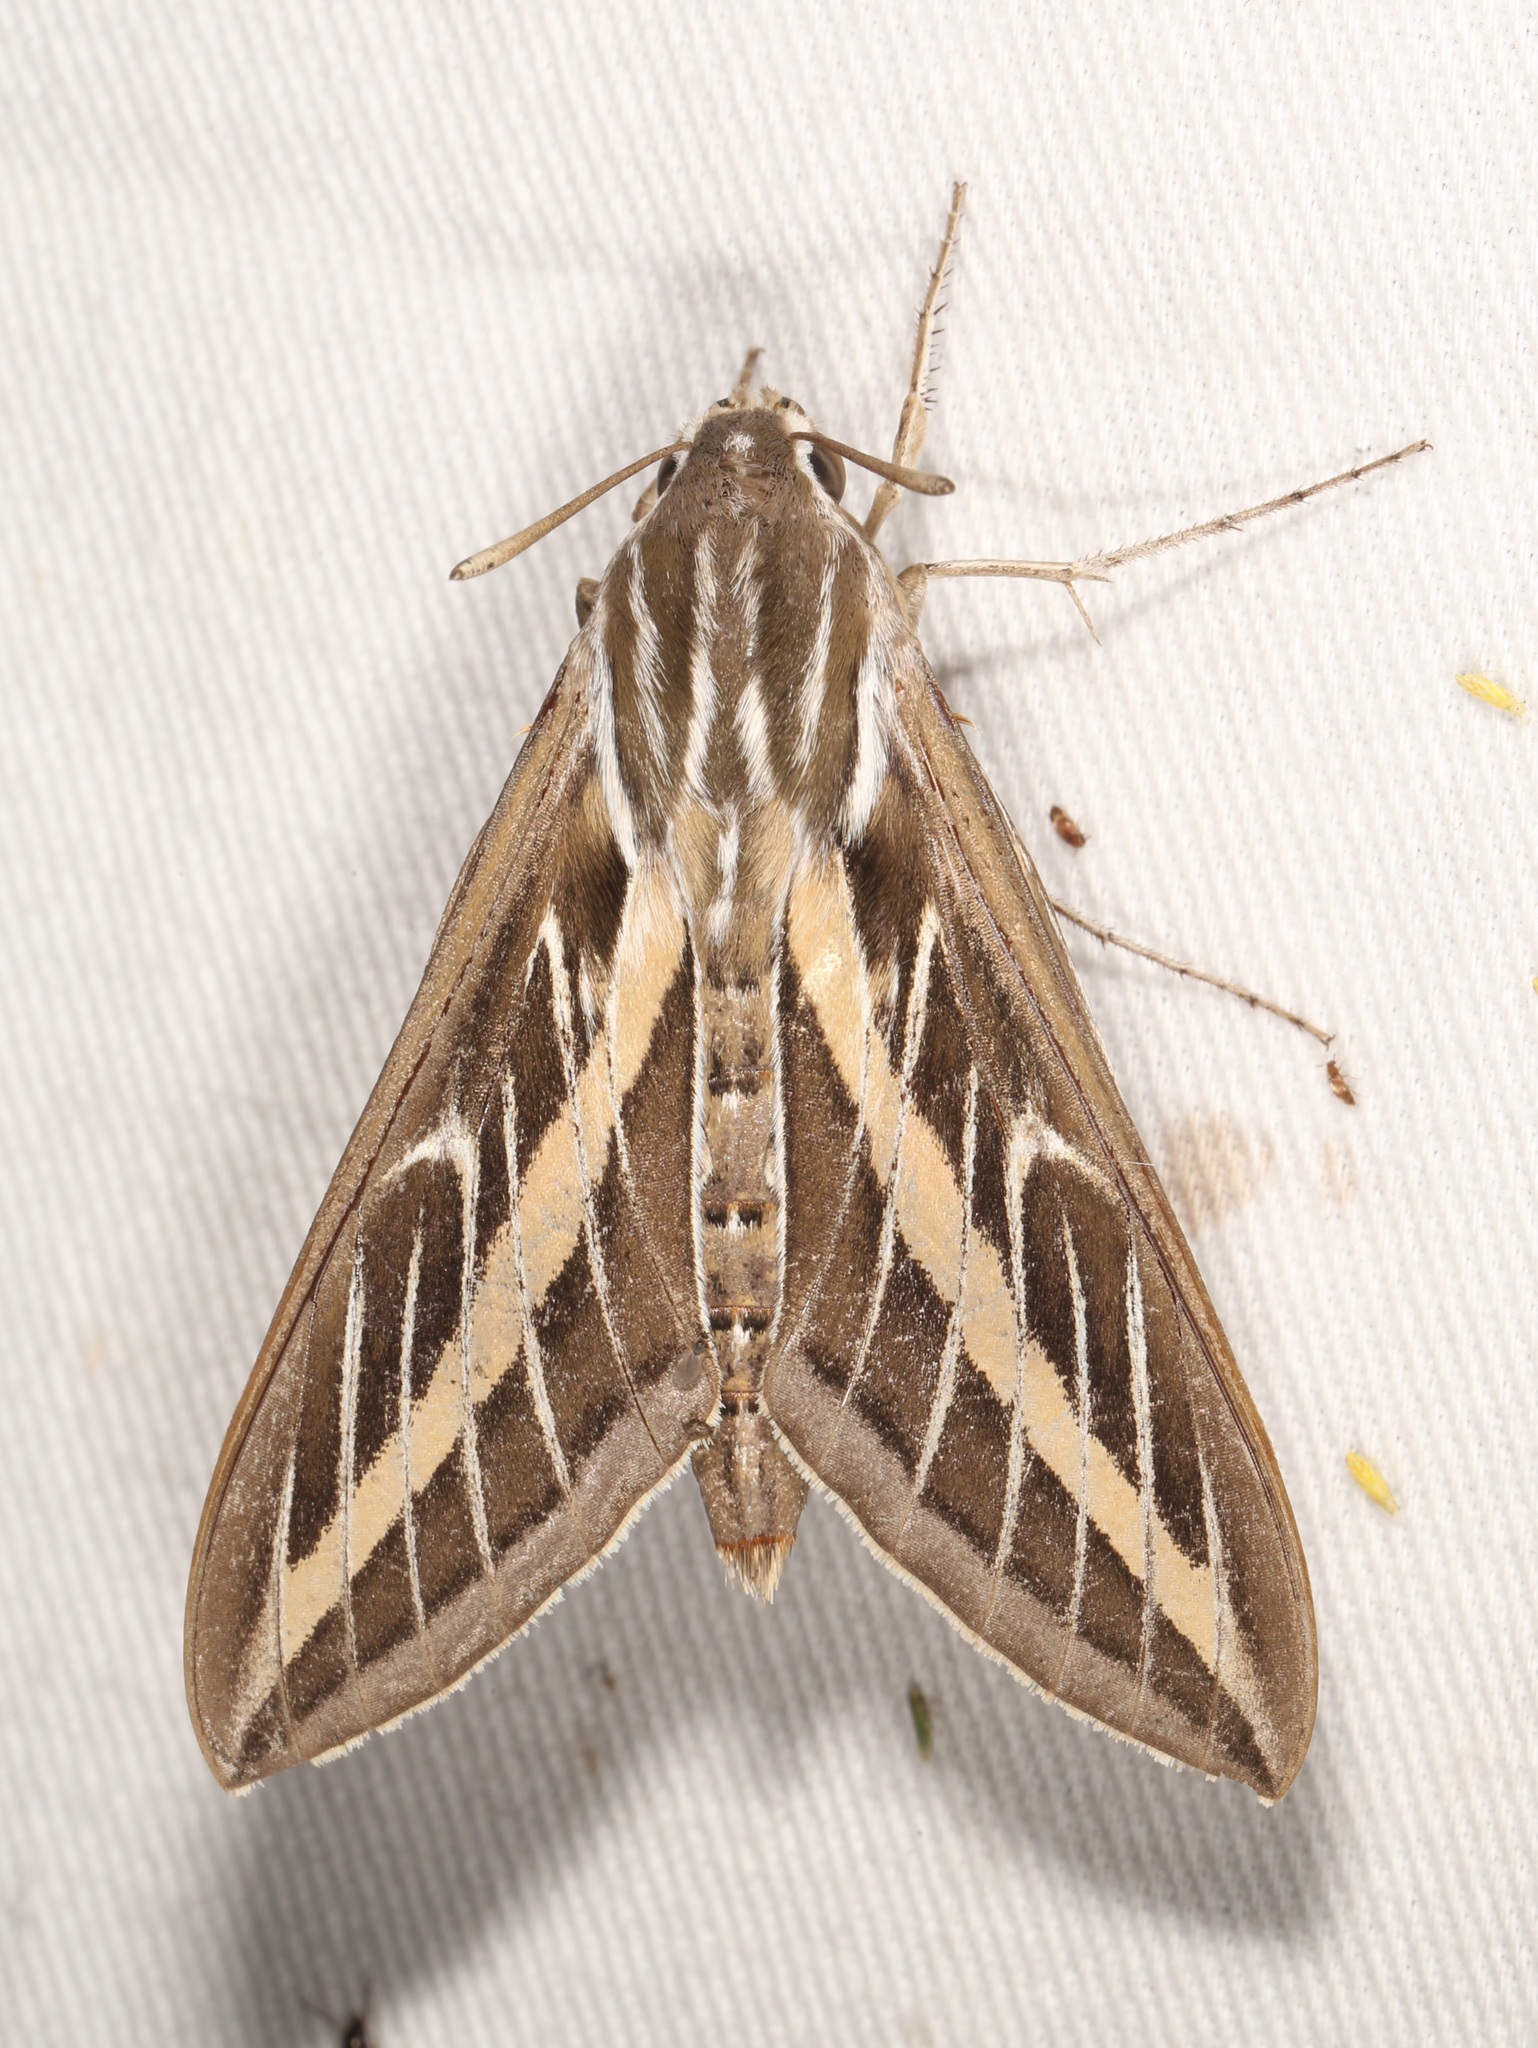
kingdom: Animalia
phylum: Arthropoda
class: Insecta
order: Lepidoptera
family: Sphingidae
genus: Hyles
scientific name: Hyles lineata
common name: White-lined sphinx
